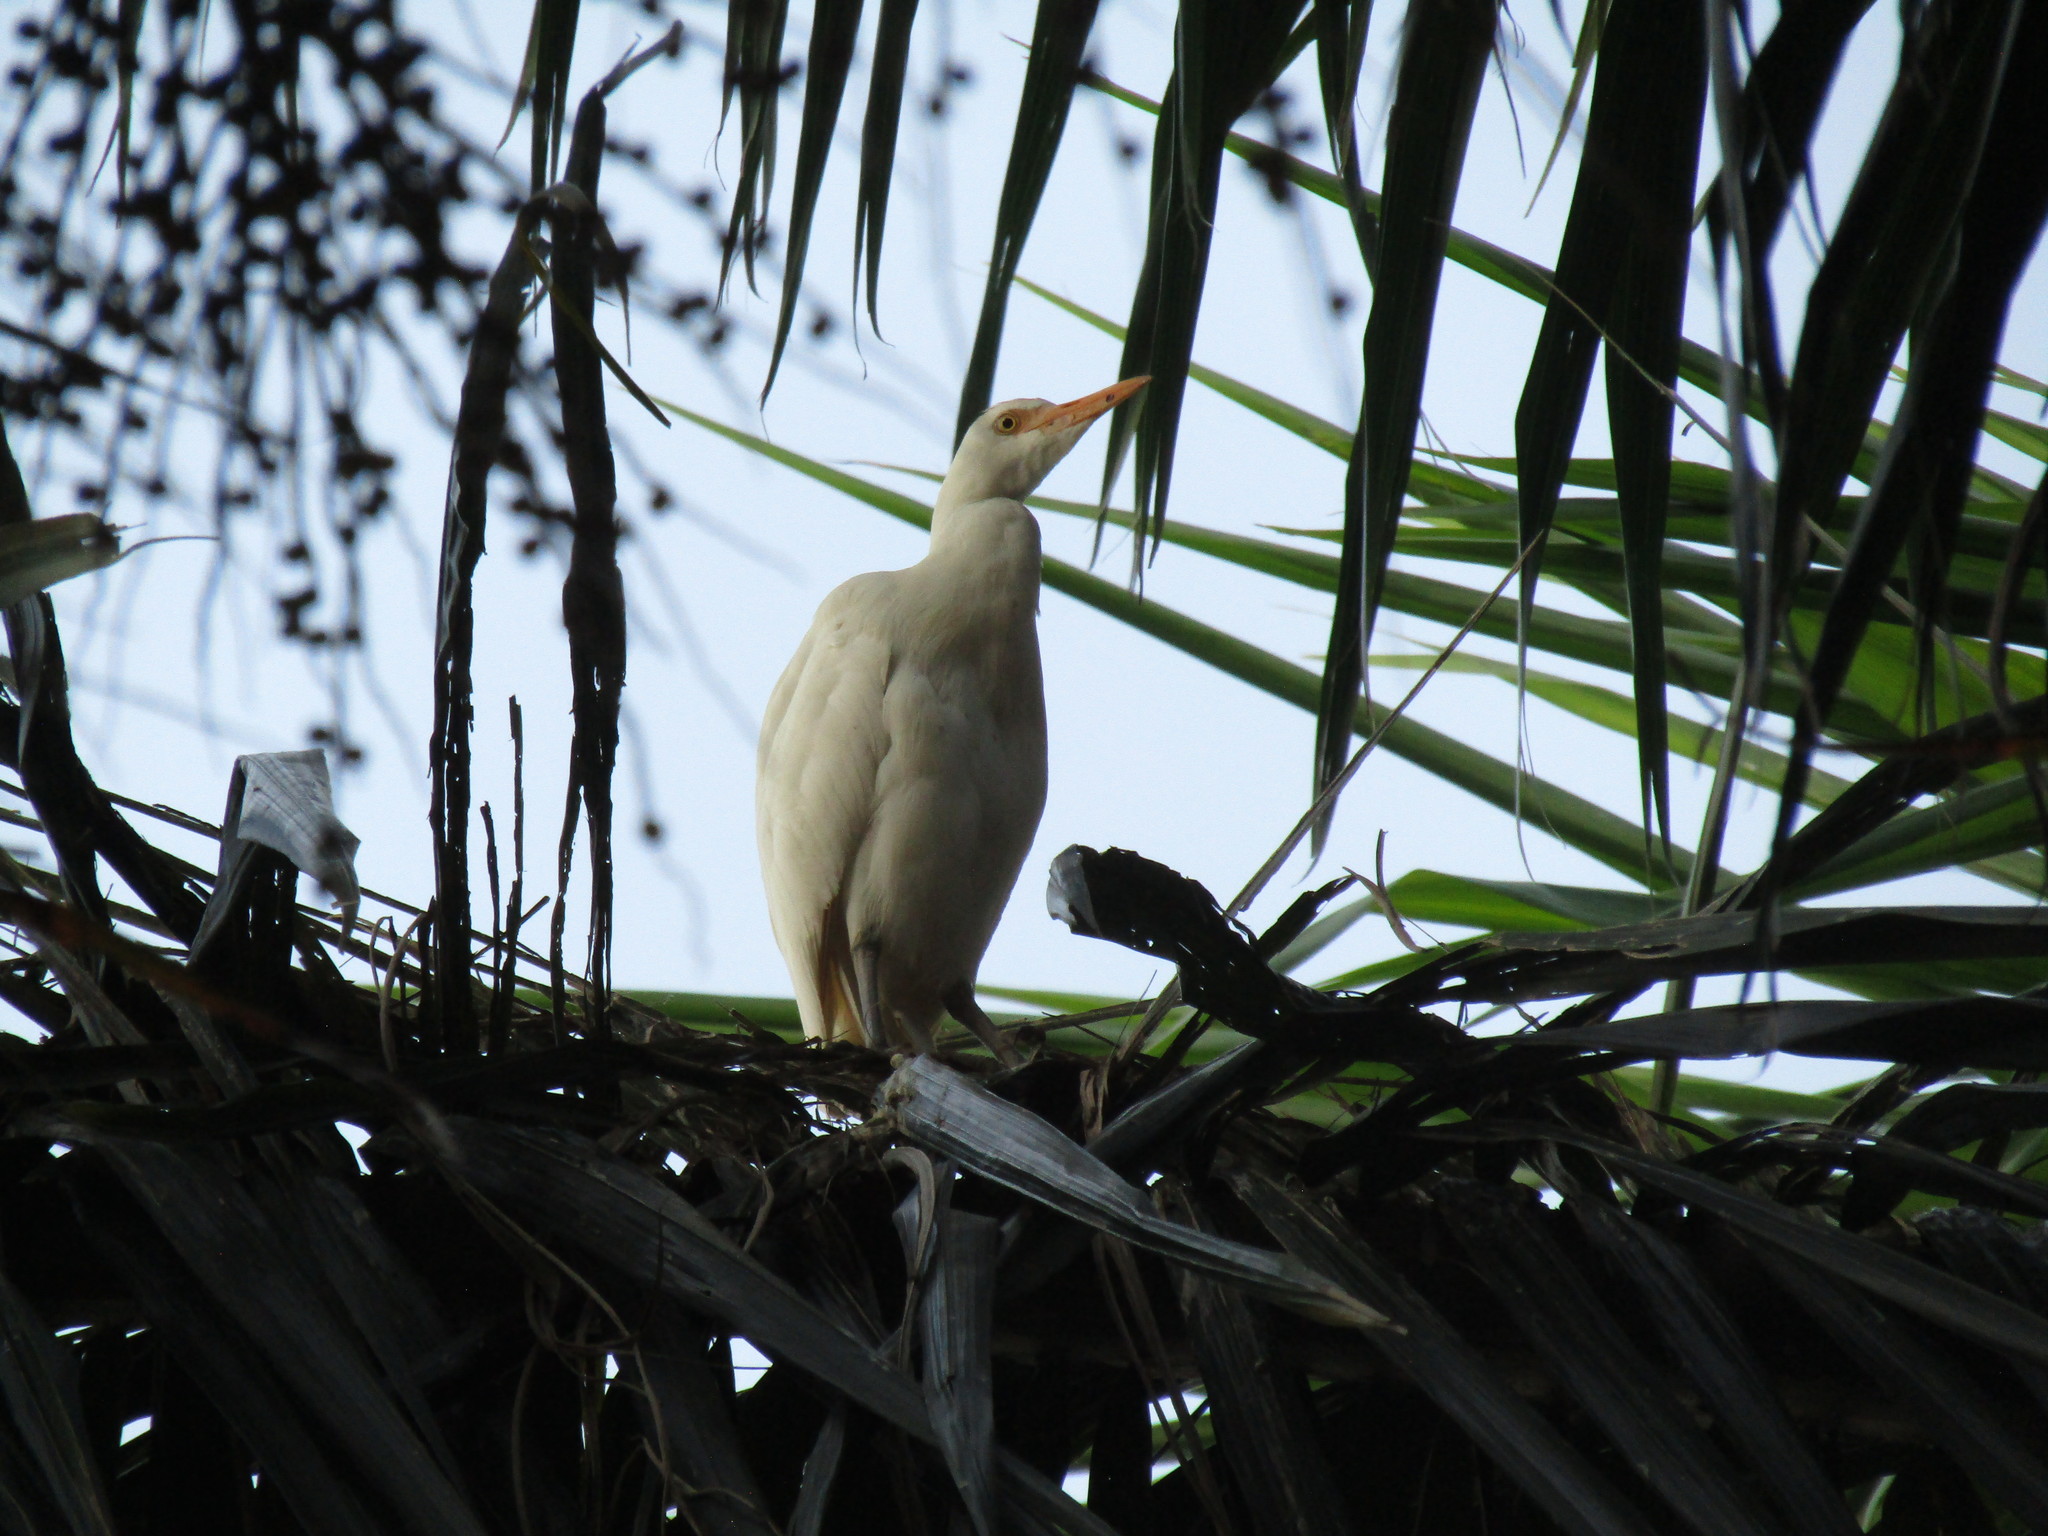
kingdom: Animalia
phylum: Chordata
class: Aves
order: Pelecaniformes
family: Ardeidae
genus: Bubulcus
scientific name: Bubulcus ibis
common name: Cattle egret
